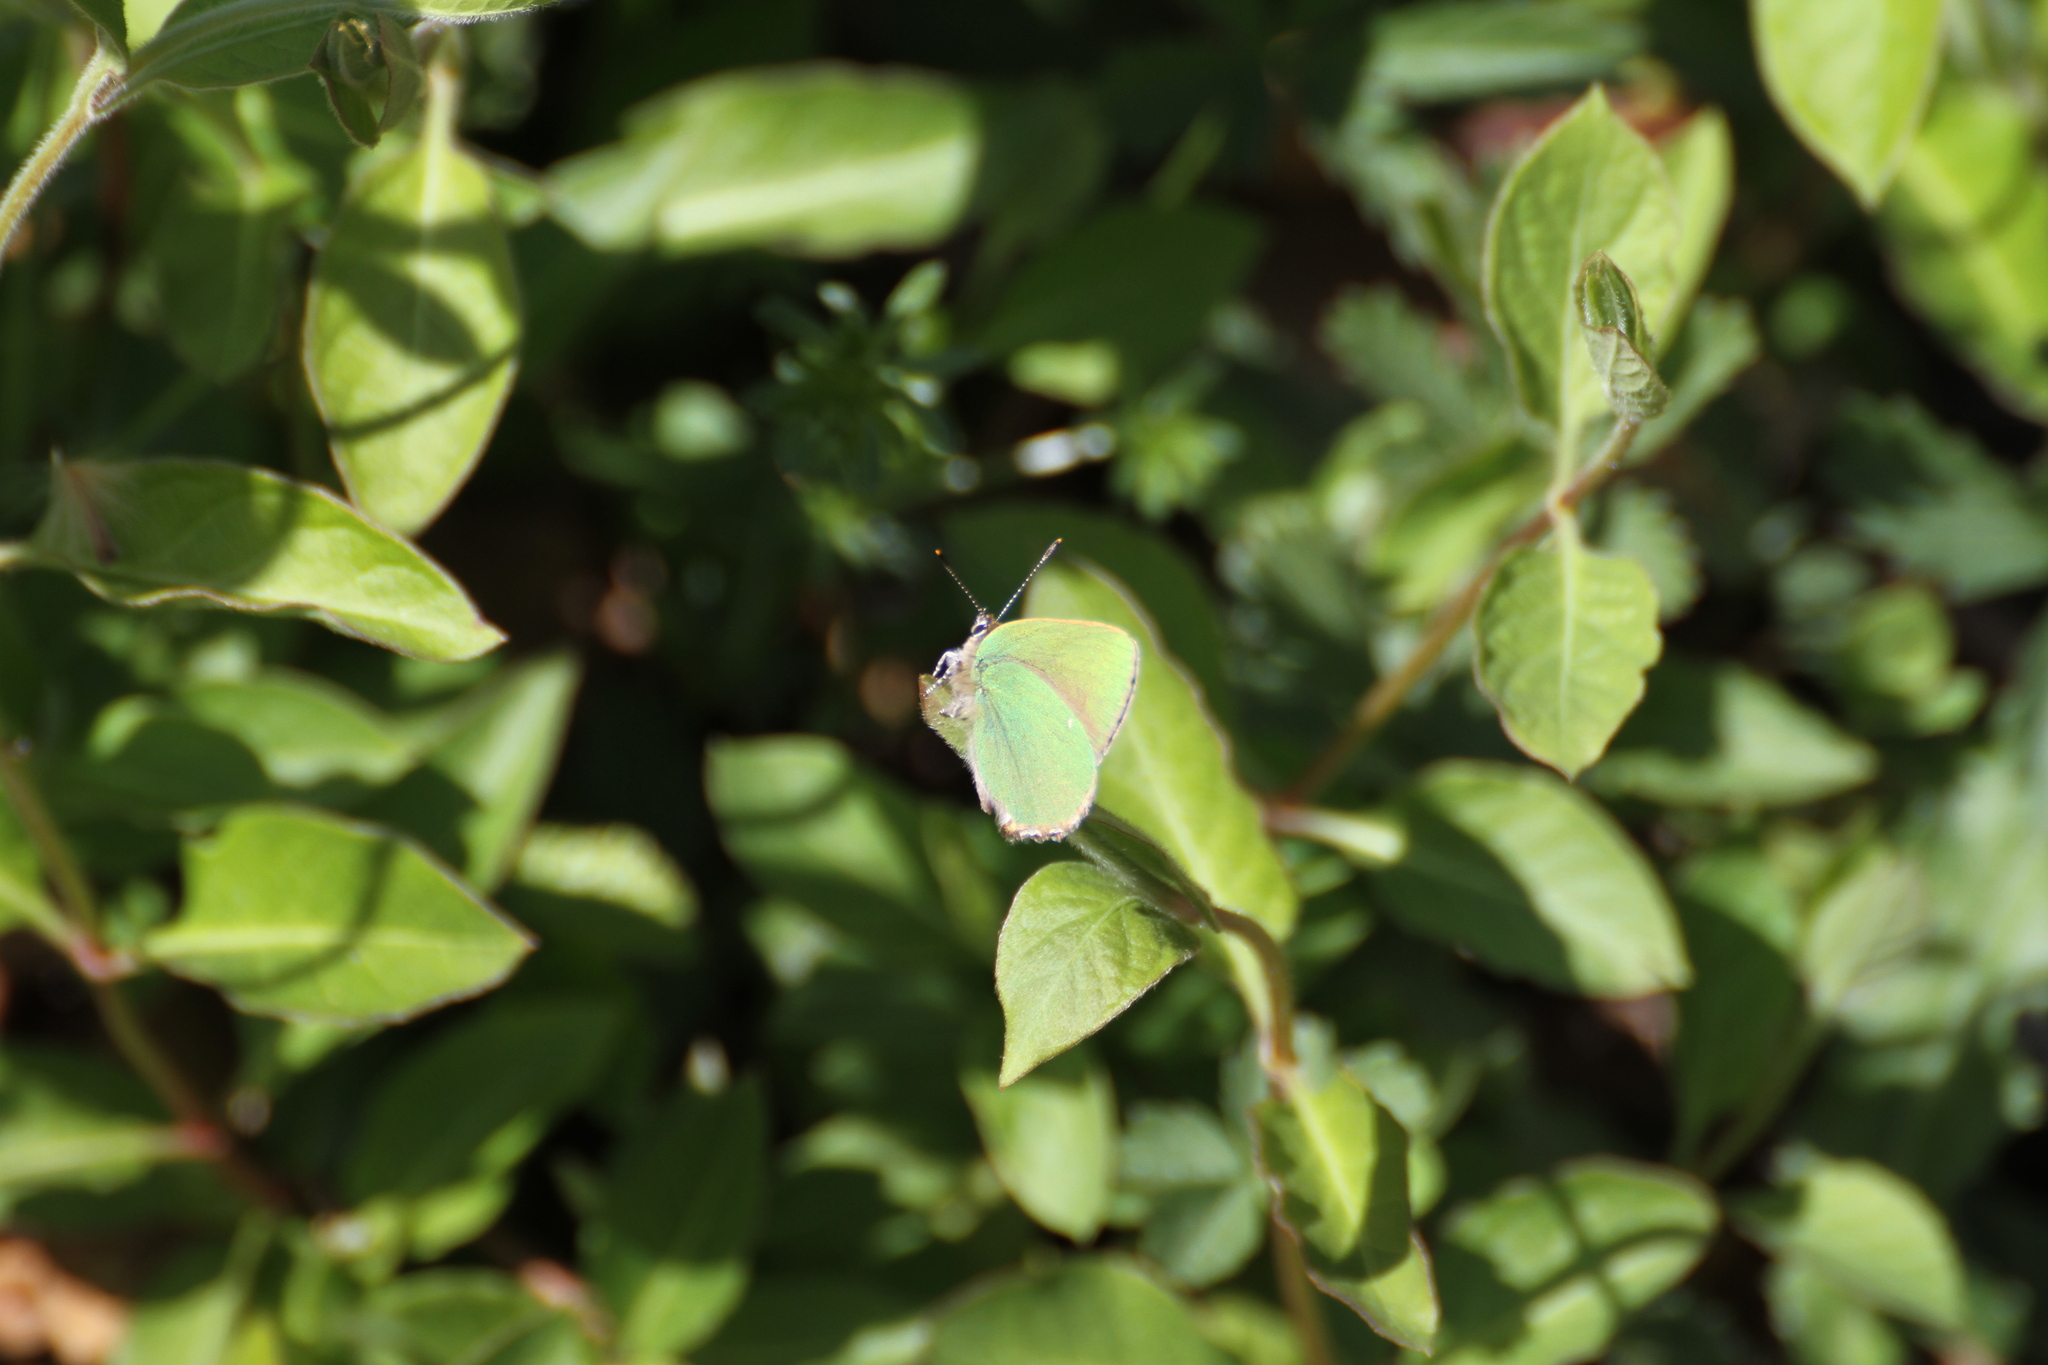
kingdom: Animalia
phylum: Arthropoda
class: Insecta
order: Lepidoptera
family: Lycaenidae
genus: Callophrys
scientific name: Callophrys rubi
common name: Green hairstreak
